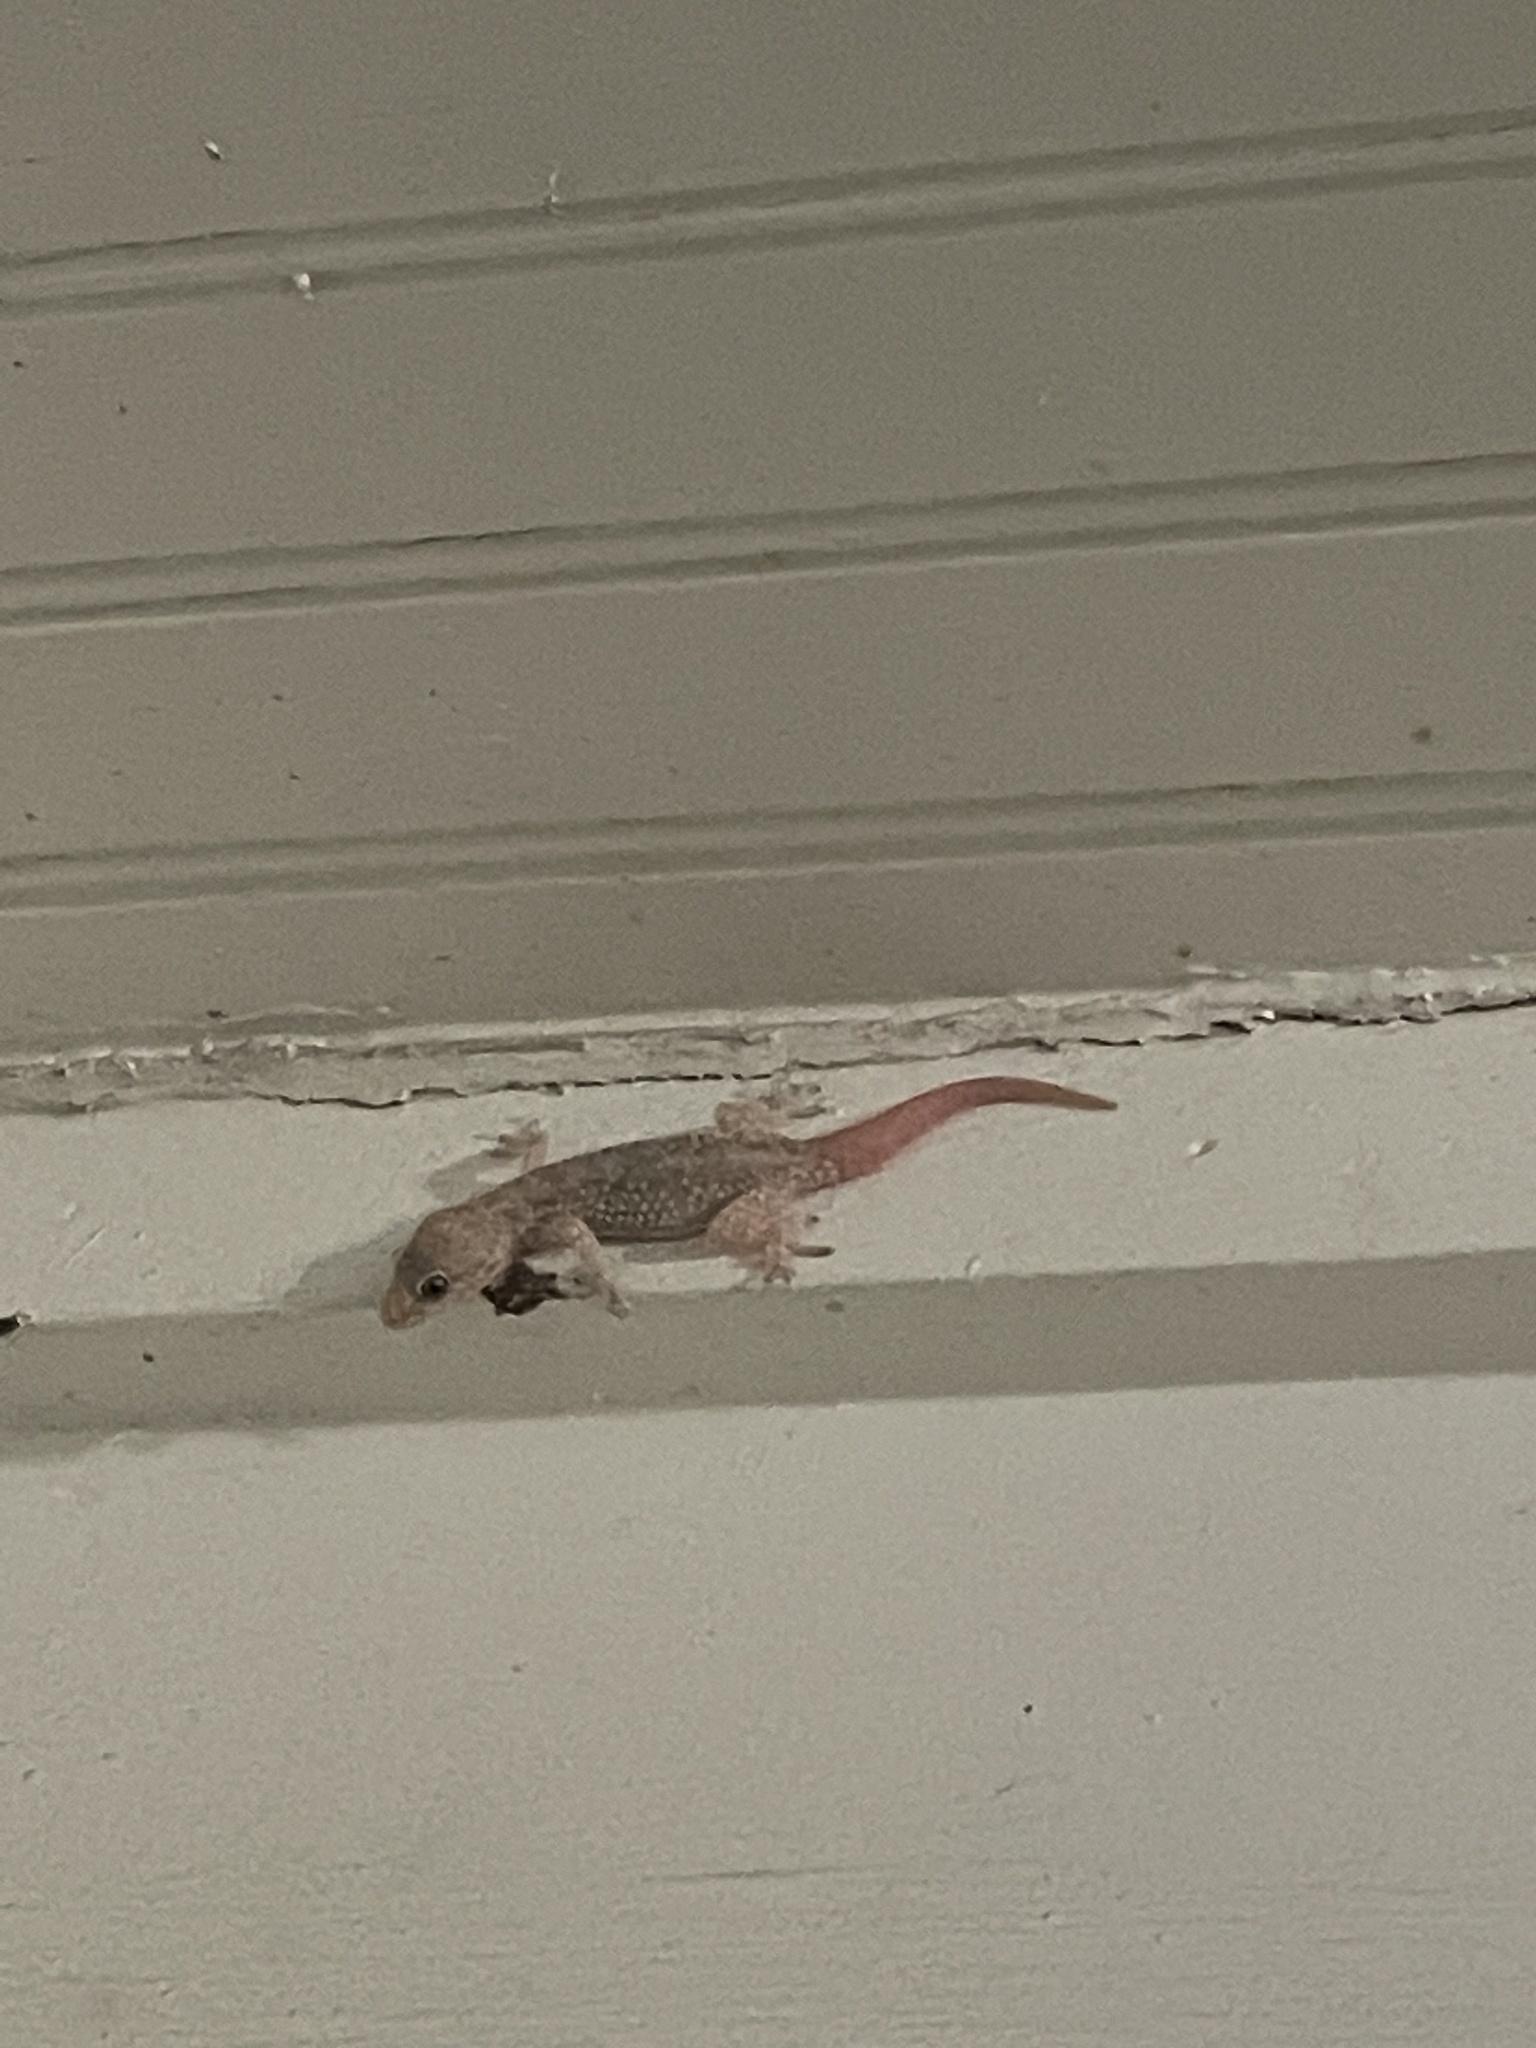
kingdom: Animalia
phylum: Chordata
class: Squamata
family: Gekkonidae
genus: Hemidactylus
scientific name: Hemidactylus turcicus
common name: Turkish gecko
